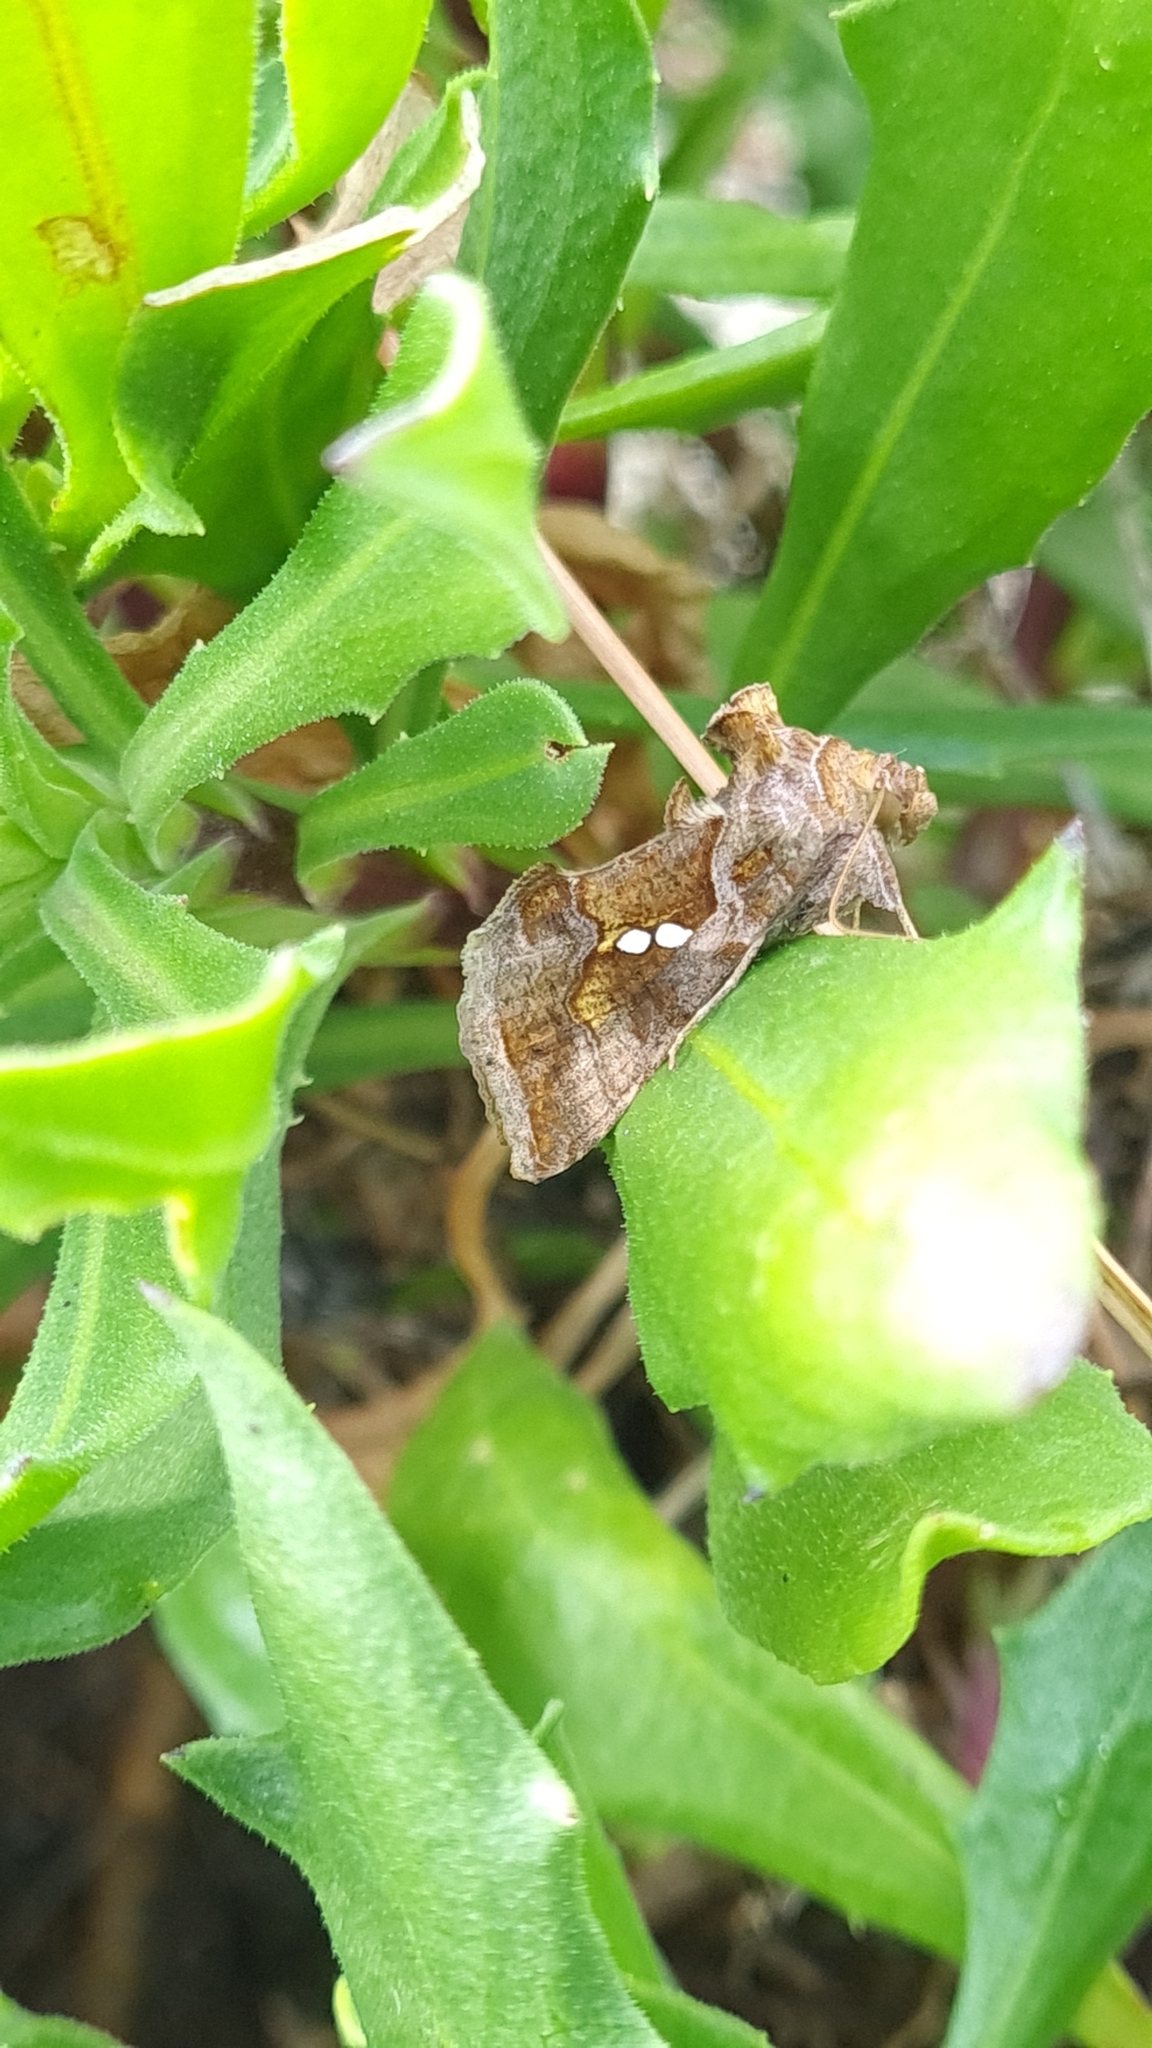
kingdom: Animalia
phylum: Arthropoda
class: Insecta
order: Lepidoptera
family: Noctuidae
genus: Chrysodeixis
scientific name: Chrysodeixis chalcites
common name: Golden twin-spot
